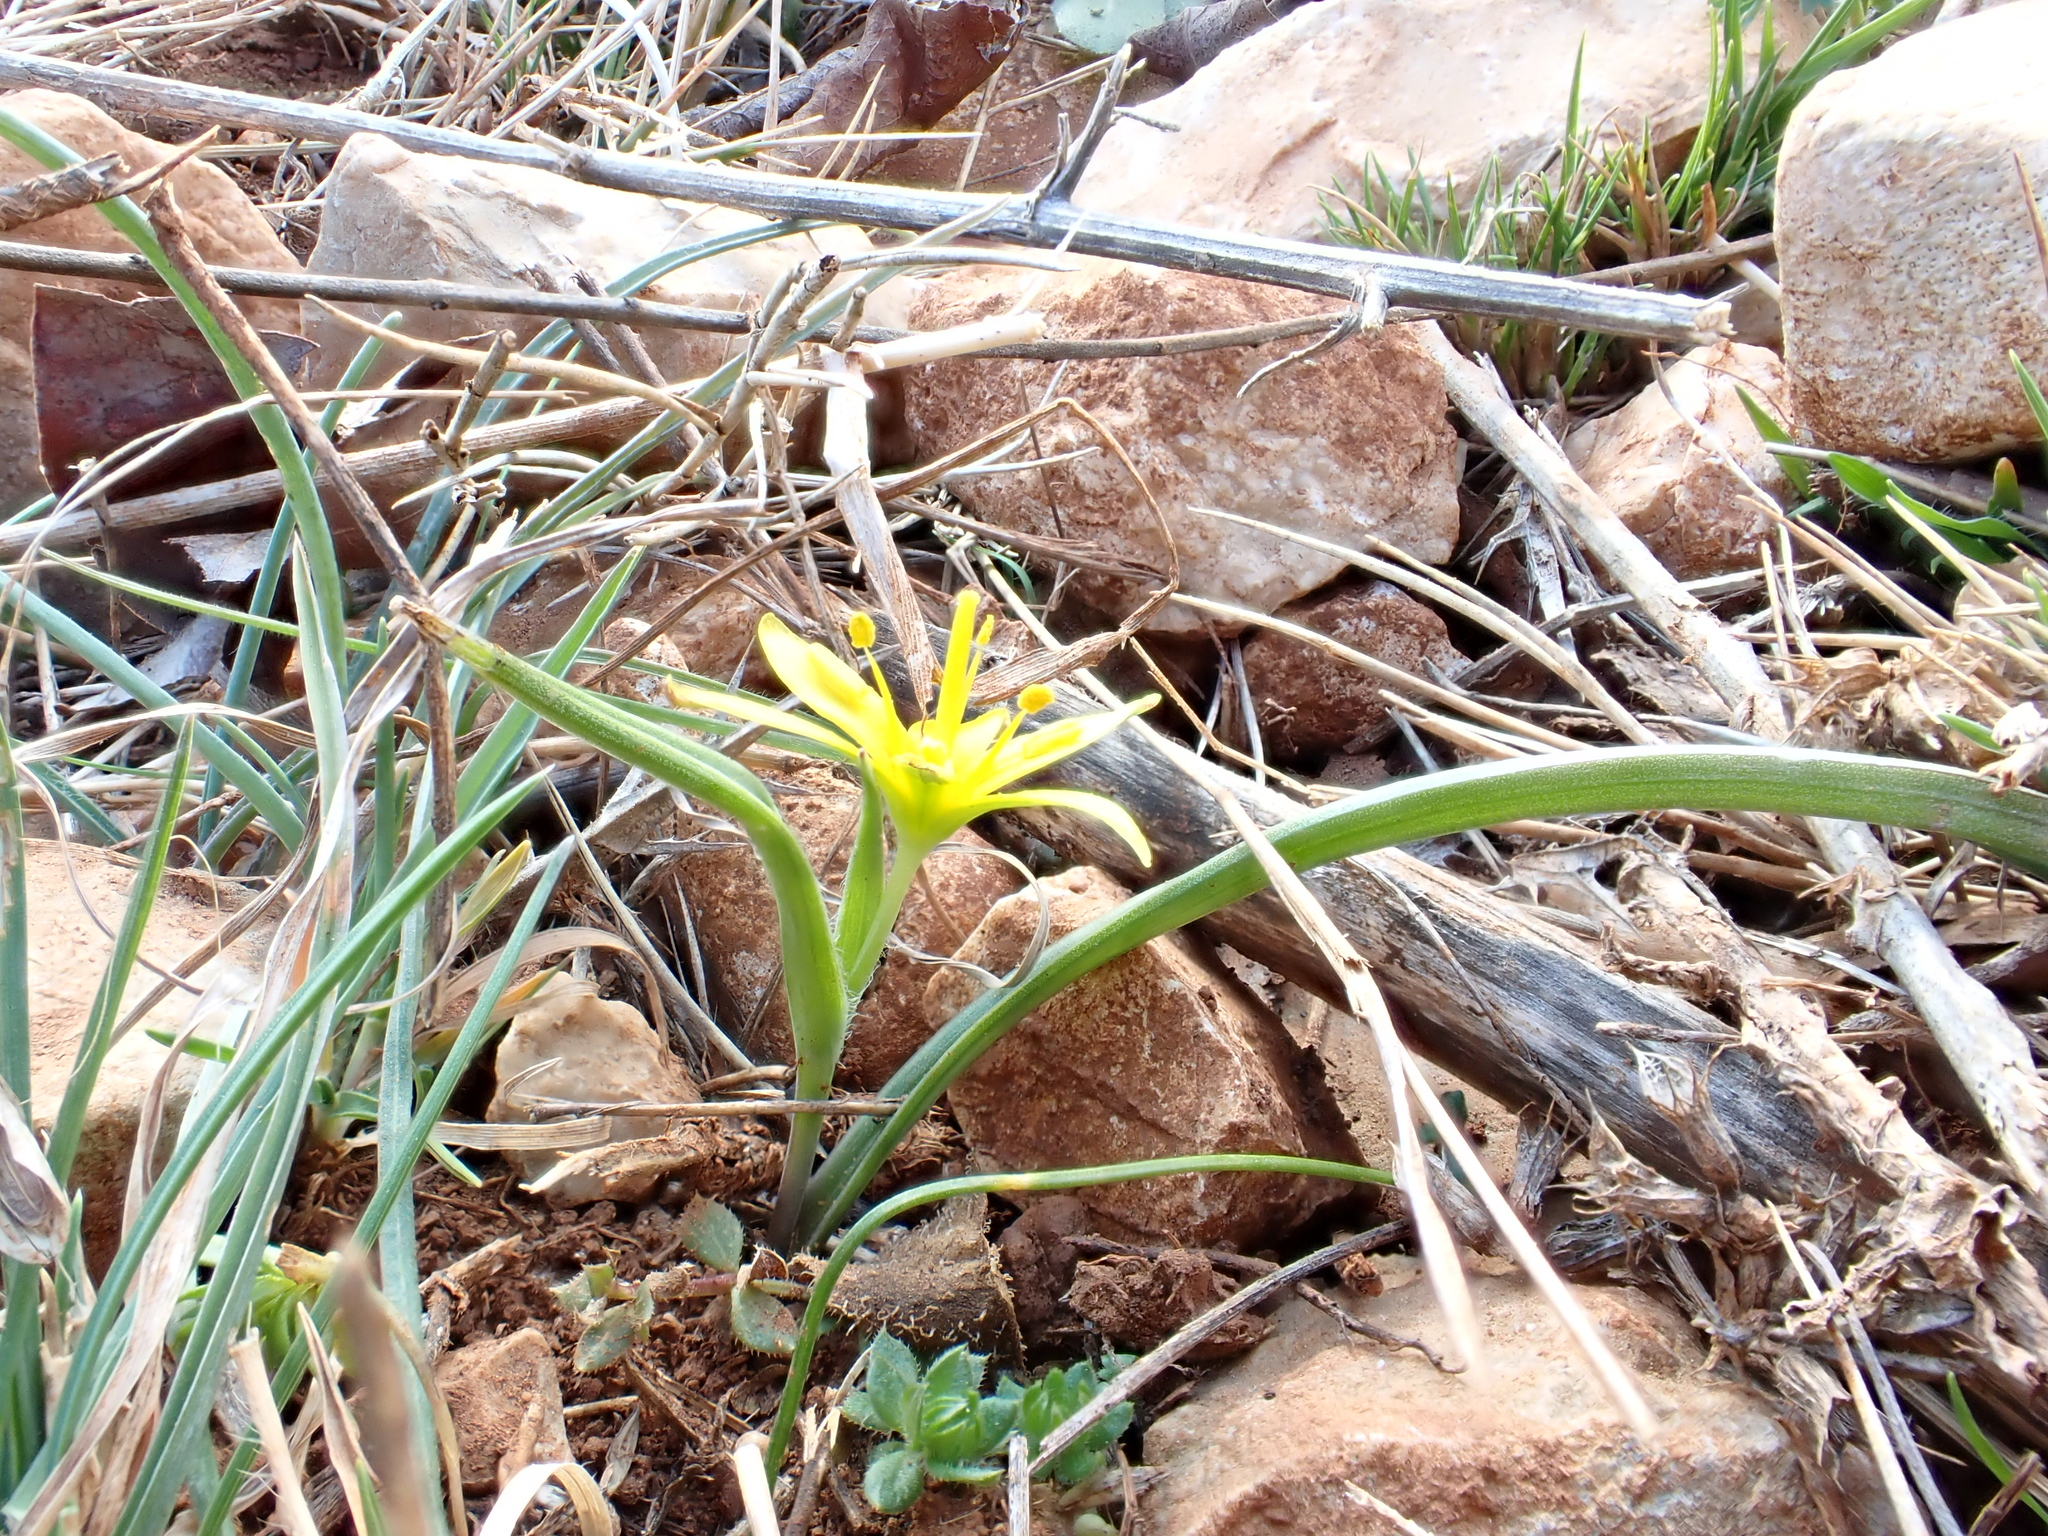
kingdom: Plantae
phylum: Tracheophyta
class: Liliopsida
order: Liliales
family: Liliaceae
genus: Gagea
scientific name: Gagea pratensis
